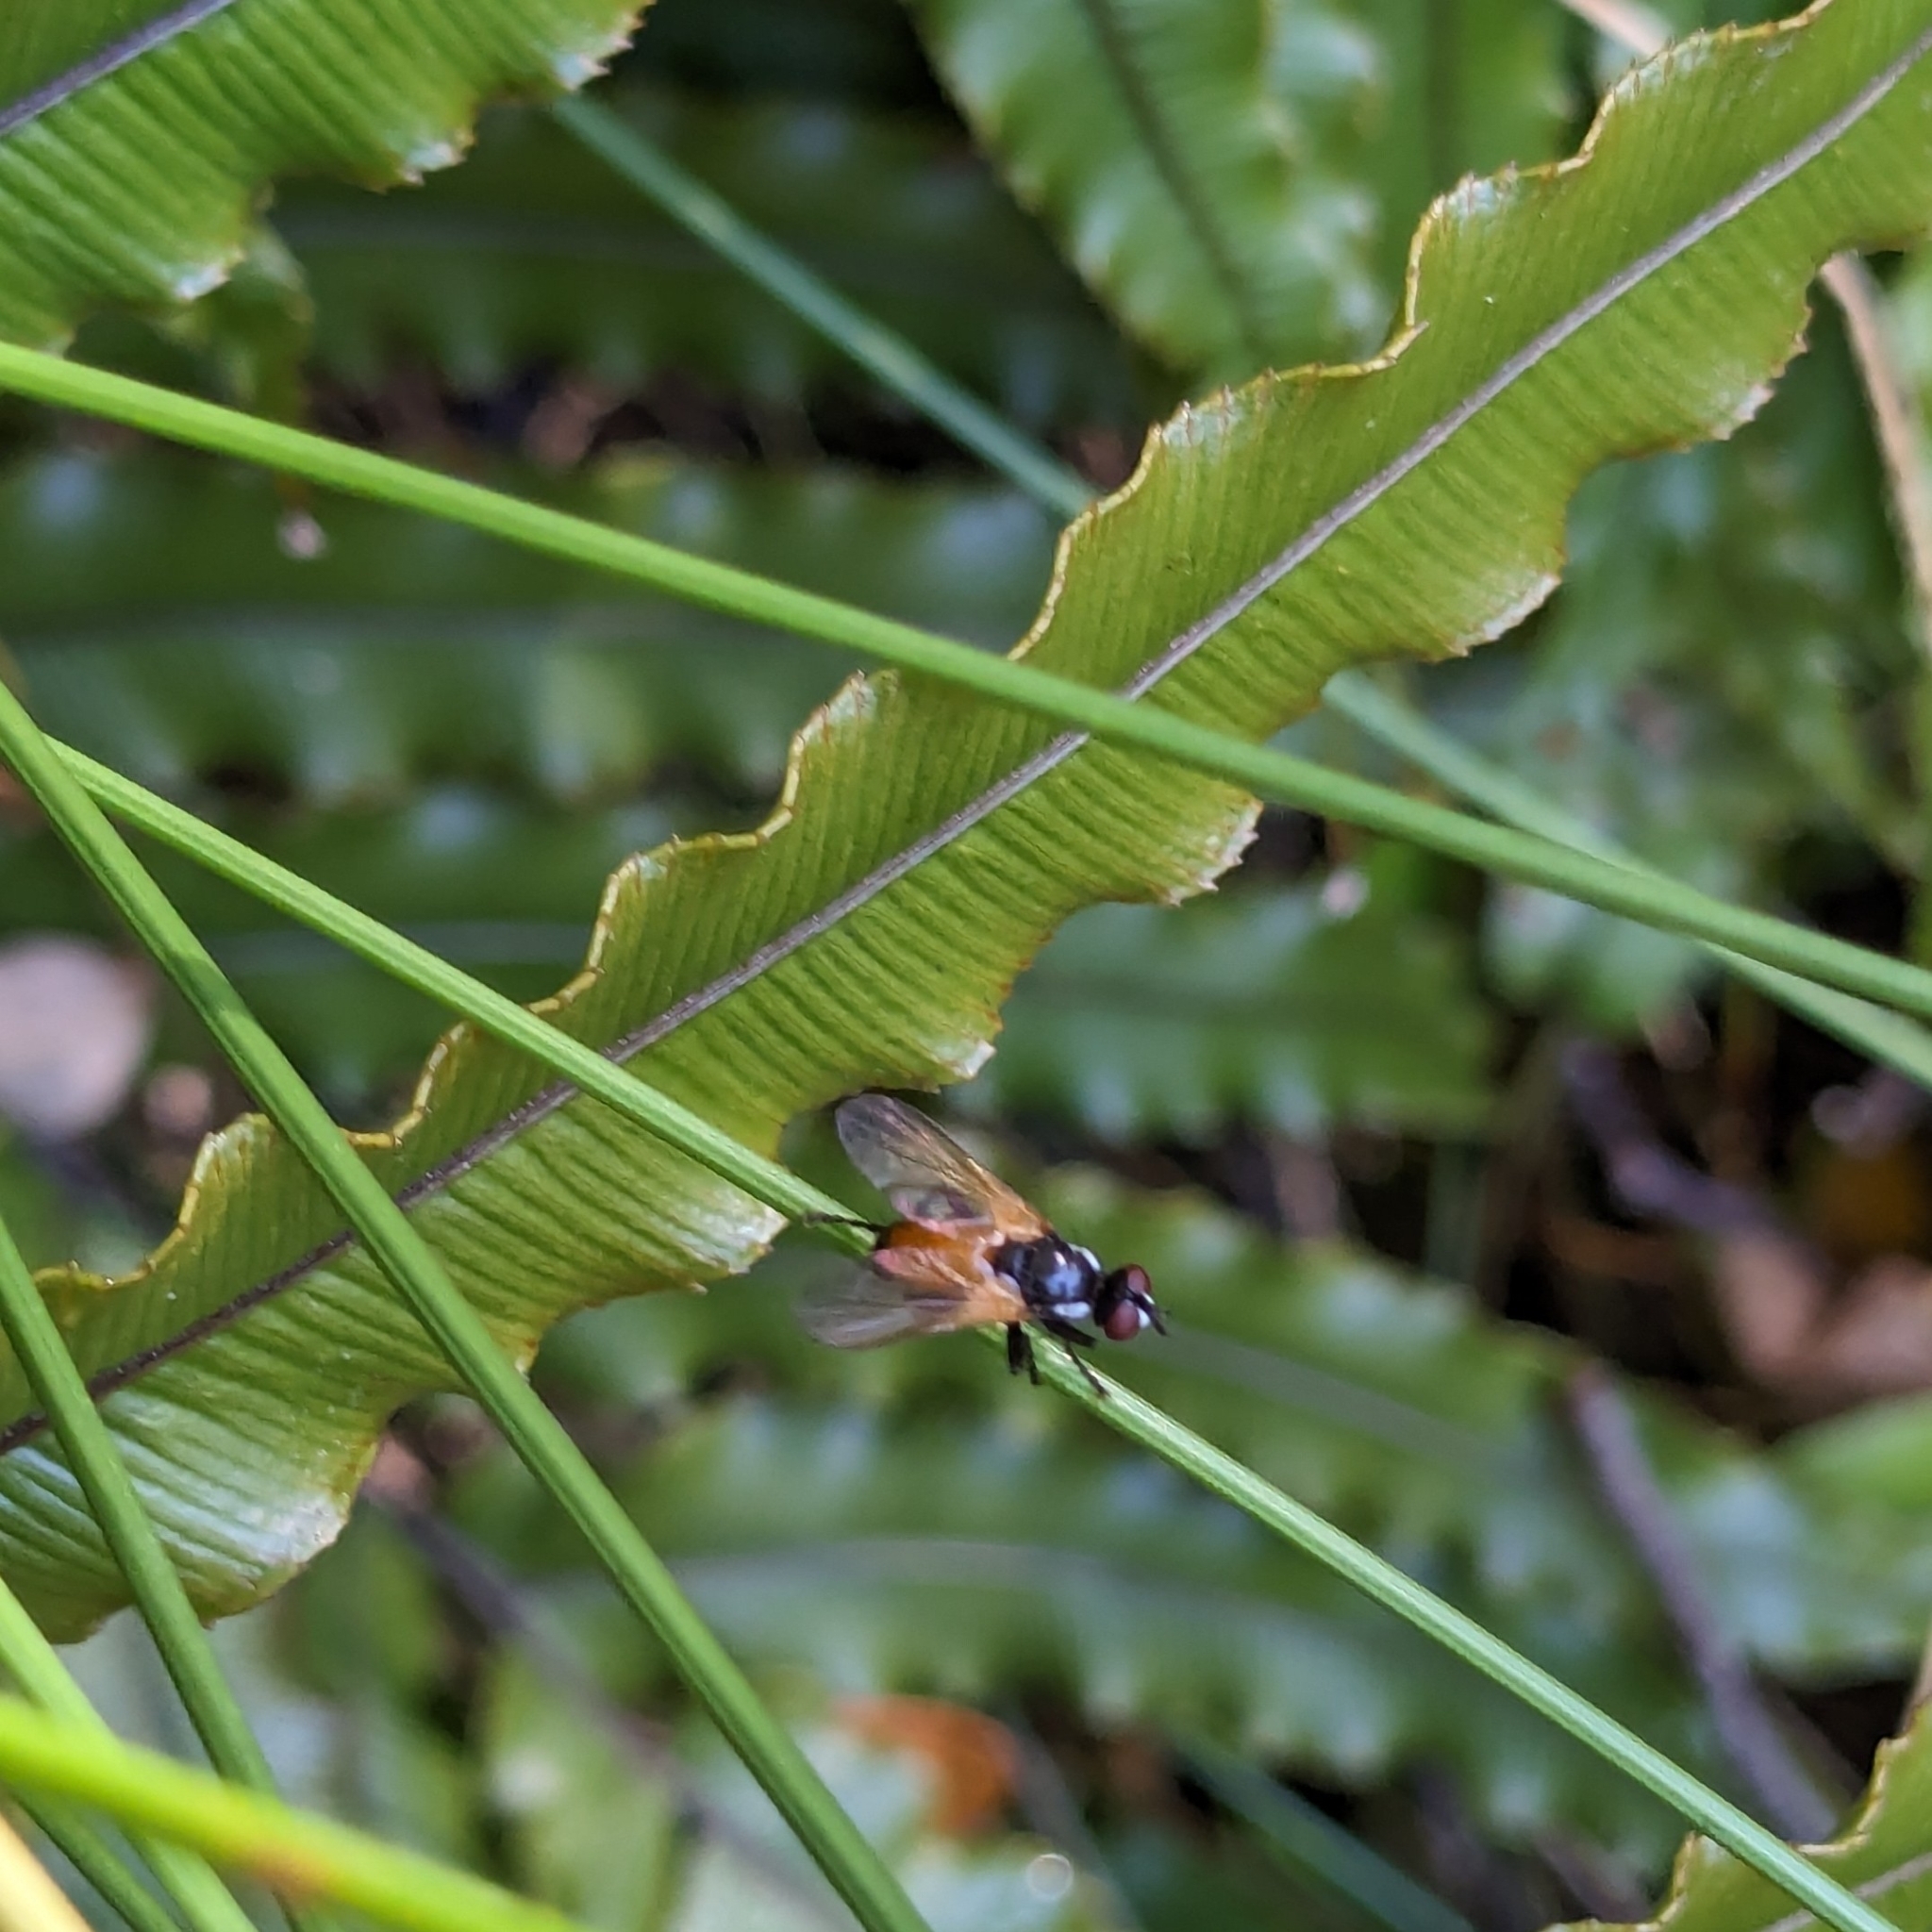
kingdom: Animalia
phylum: Arthropoda
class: Insecta
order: Diptera
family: Tachinidae
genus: Huttonobesseria
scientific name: Huttonobesseria verecunda
